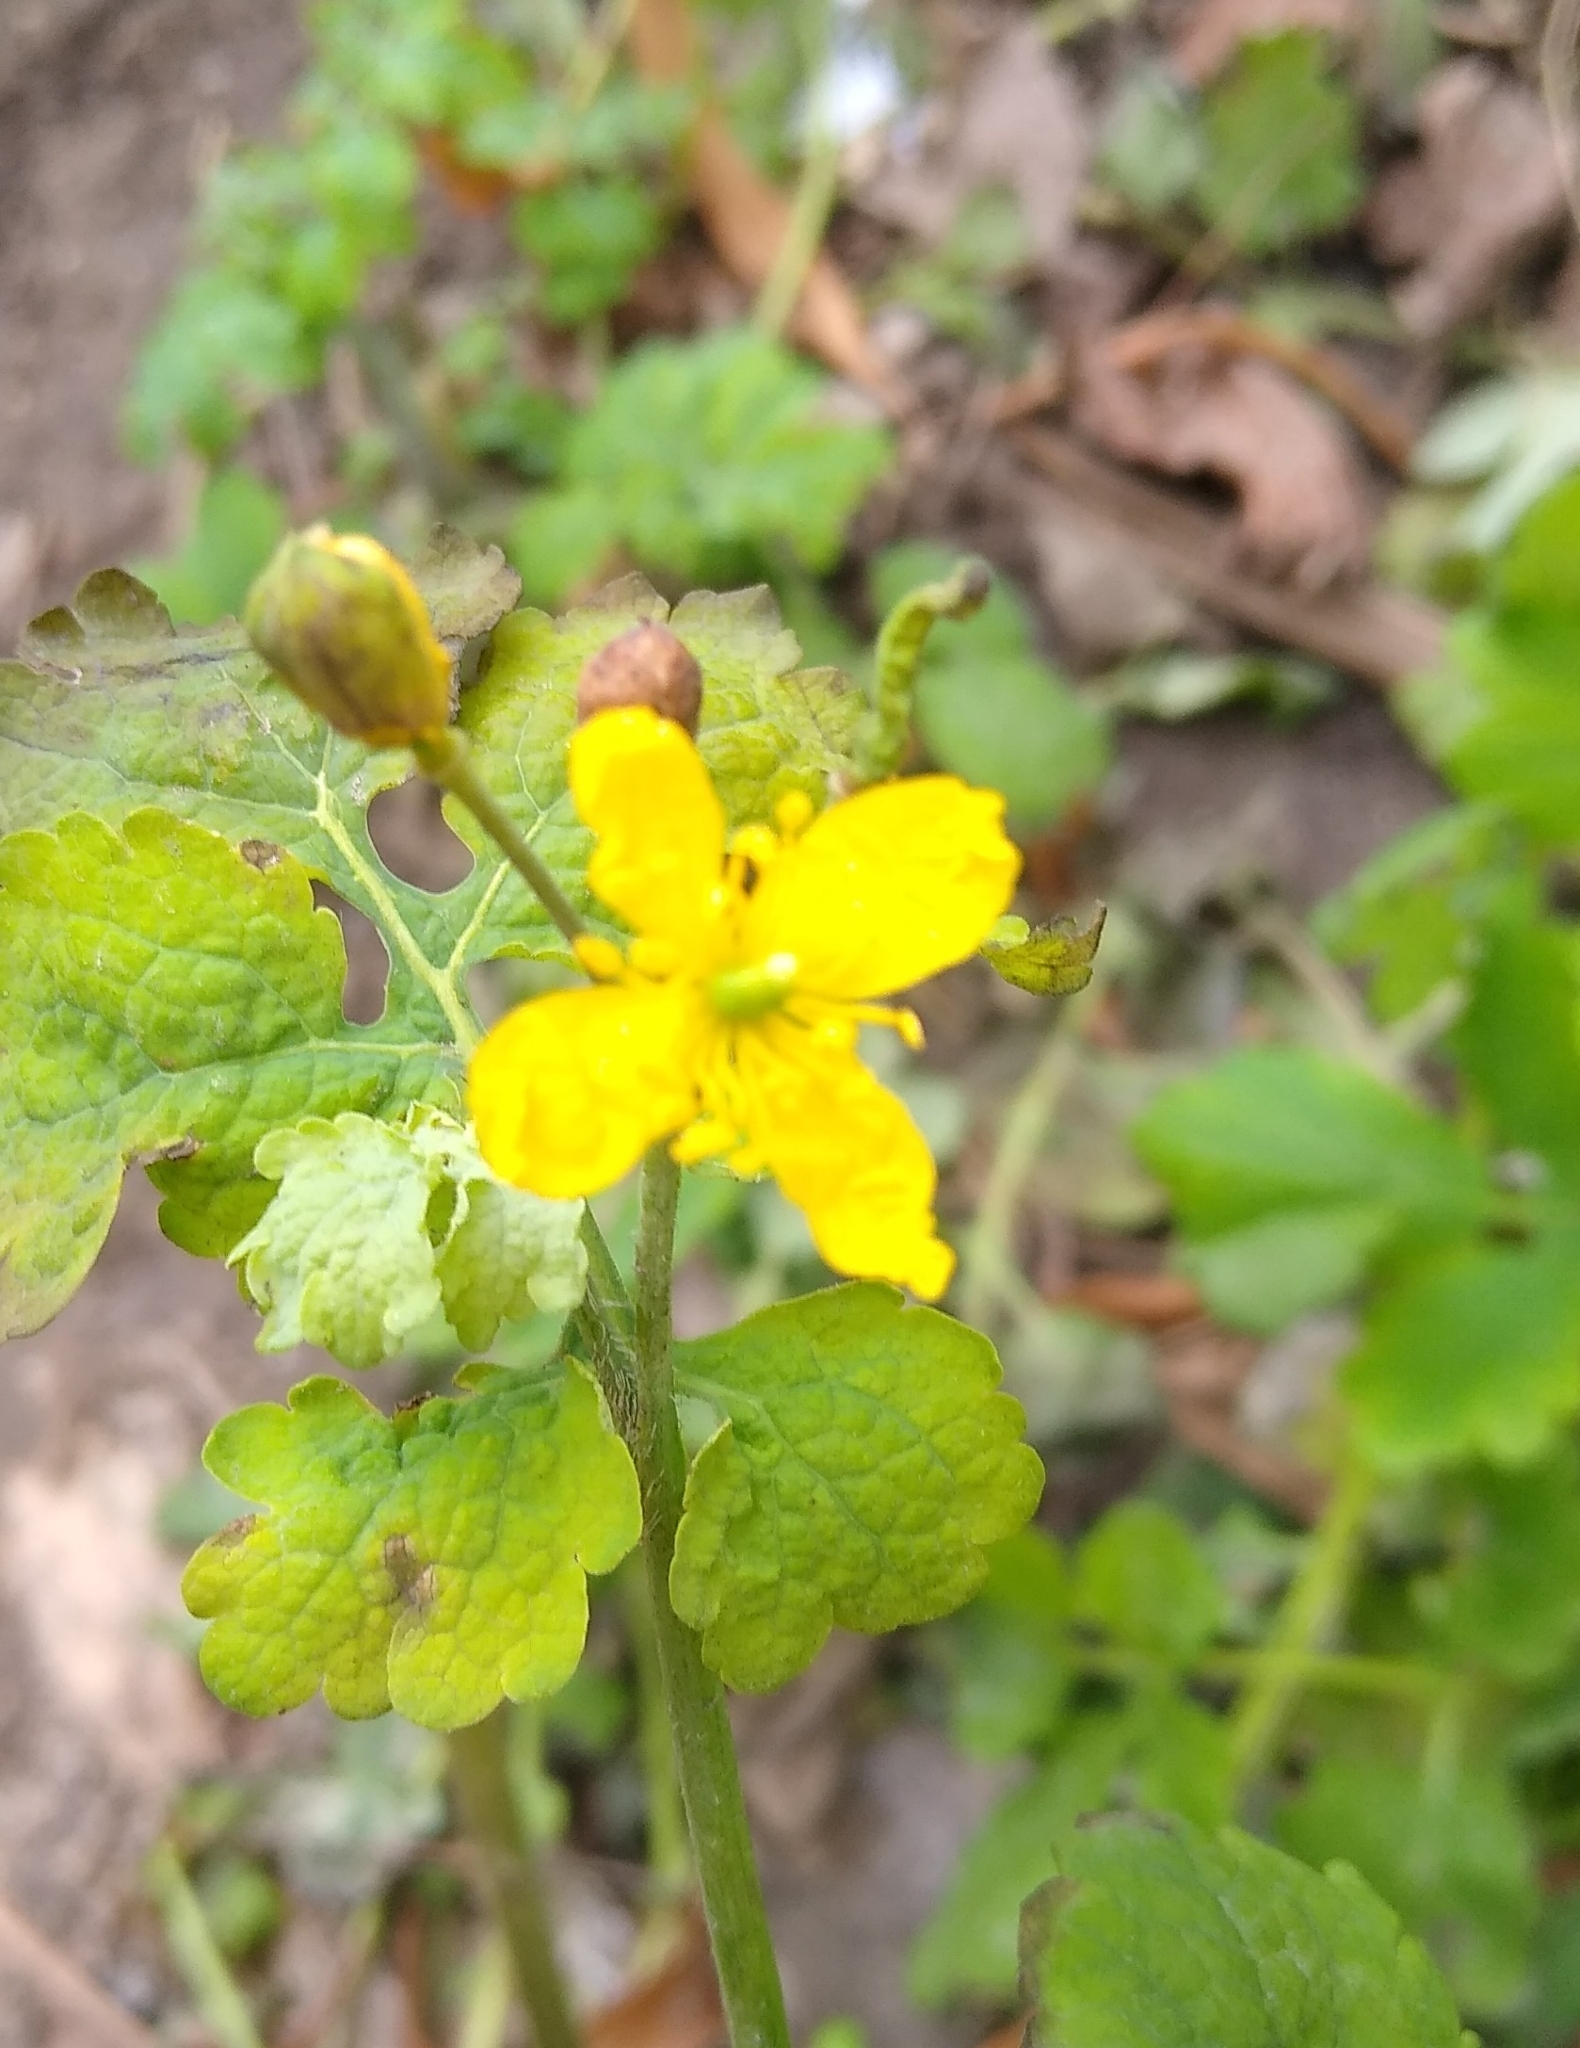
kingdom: Plantae
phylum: Tracheophyta
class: Magnoliopsida
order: Ranunculales
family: Papaveraceae
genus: Chelidonium
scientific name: Chelidonium majus
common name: Greater celandine
